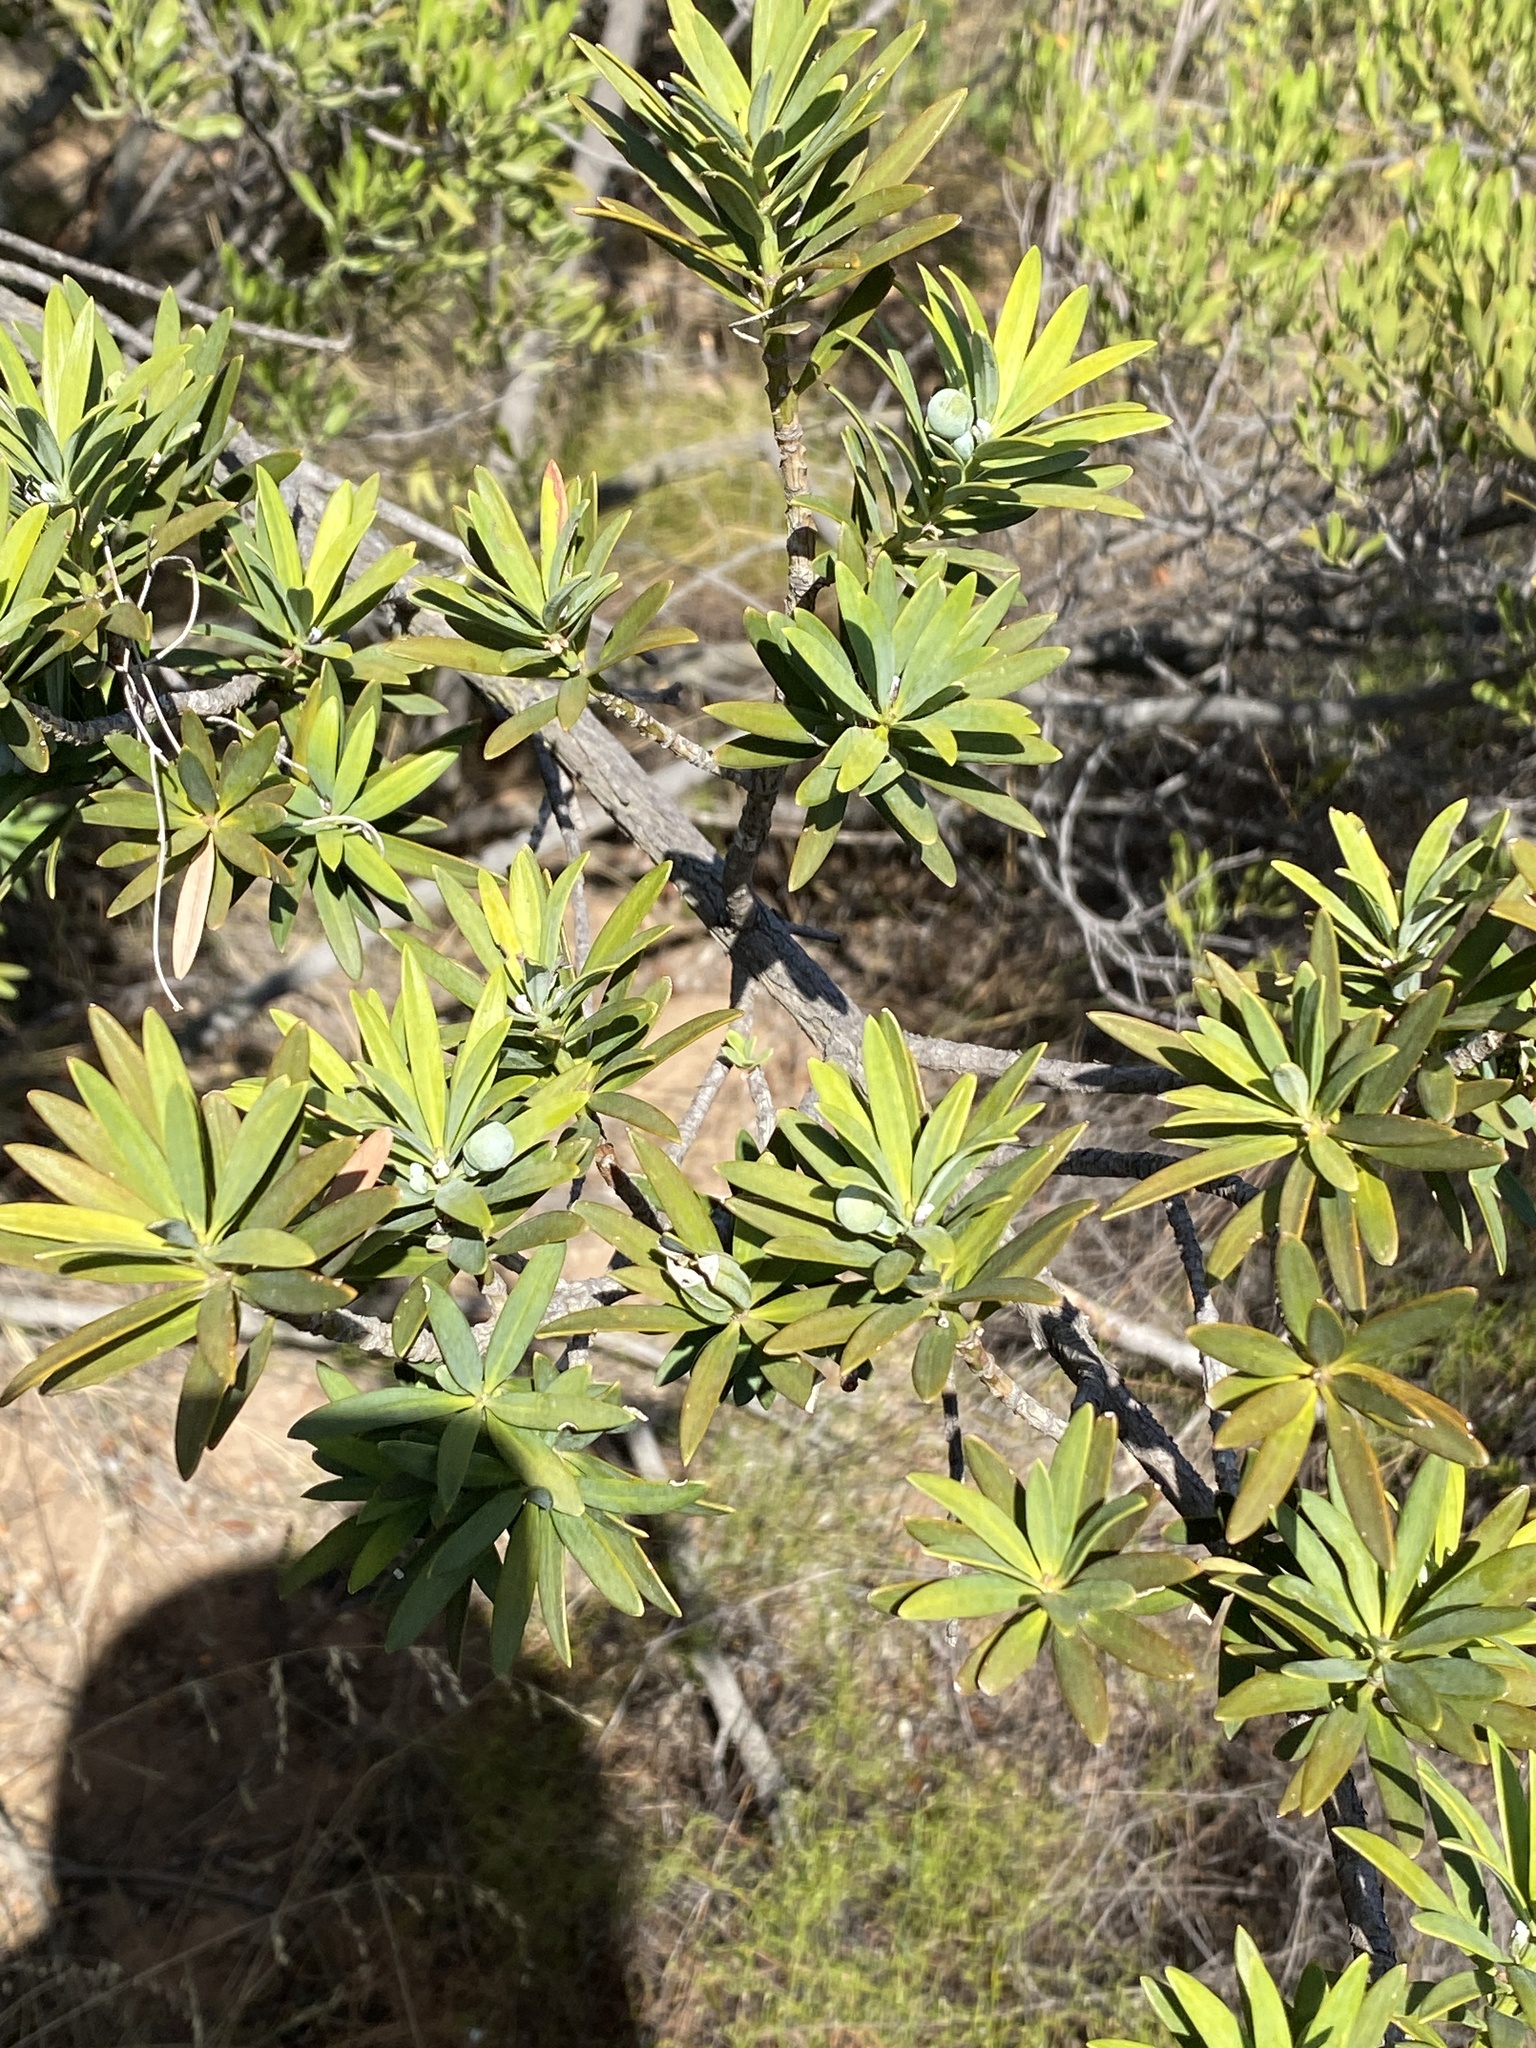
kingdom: Plantae
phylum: Tracheophyta
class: Pinopsida
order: Pinales
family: Podocarpaceae
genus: Podocarpus
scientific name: Podocarpus latifolius
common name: True yellowwood
